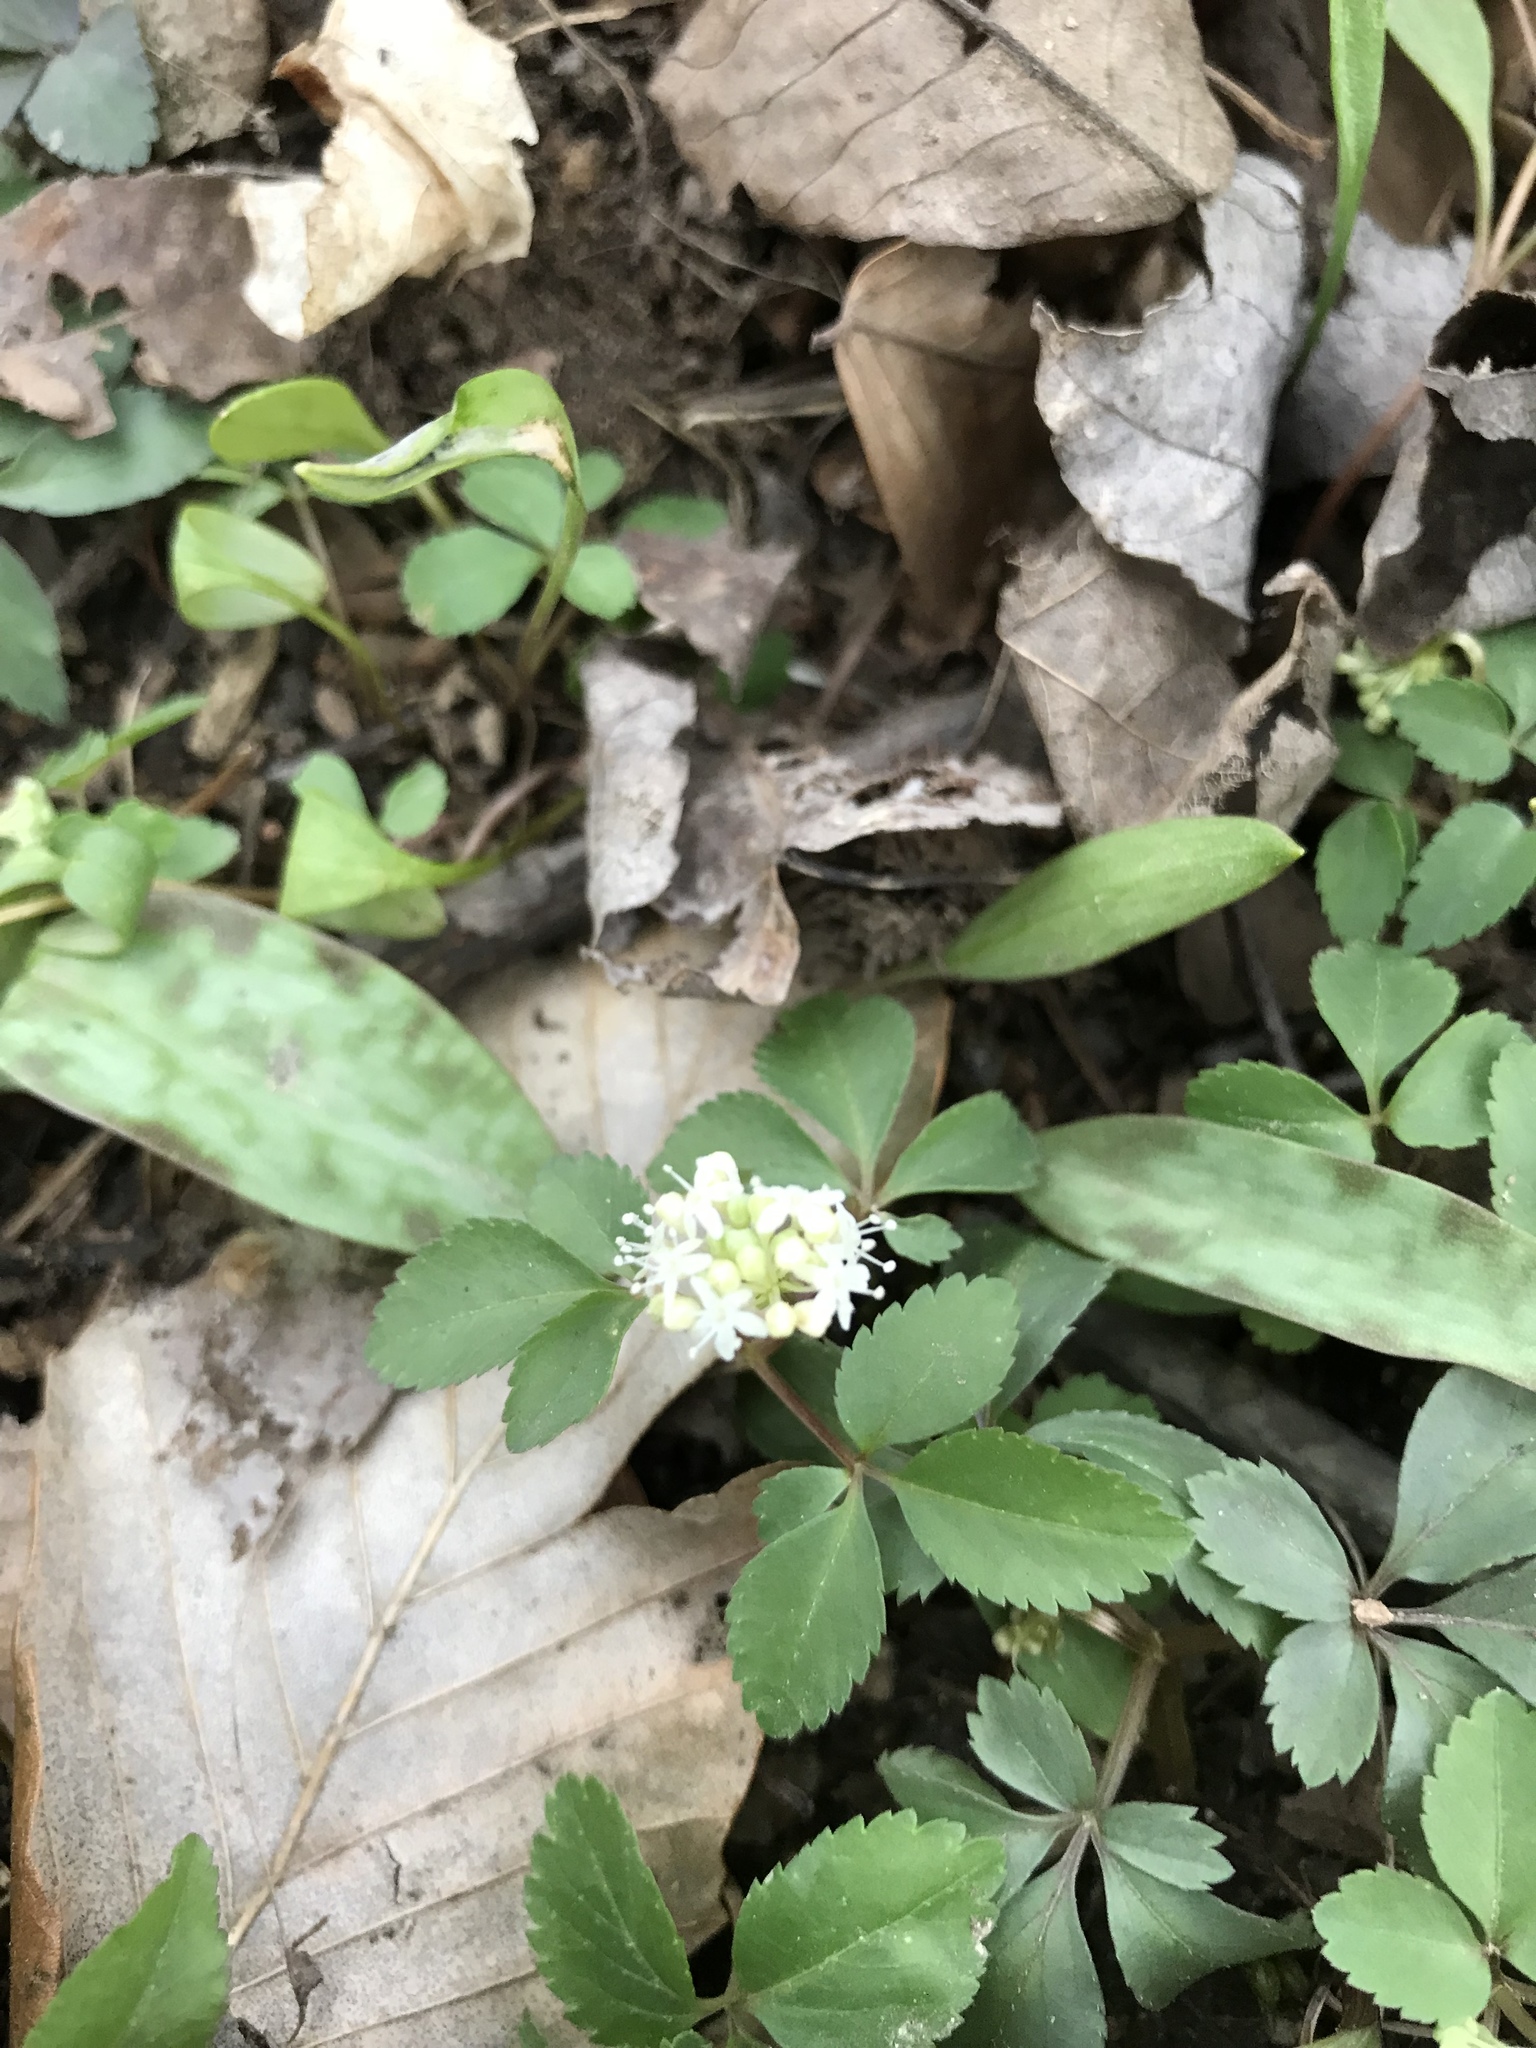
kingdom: Plantae
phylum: Tracheophyta
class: Magnoliopsida
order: Apiales
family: Araliaceae
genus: Panax
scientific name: Panax trifolius
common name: Dwarf ginseng
